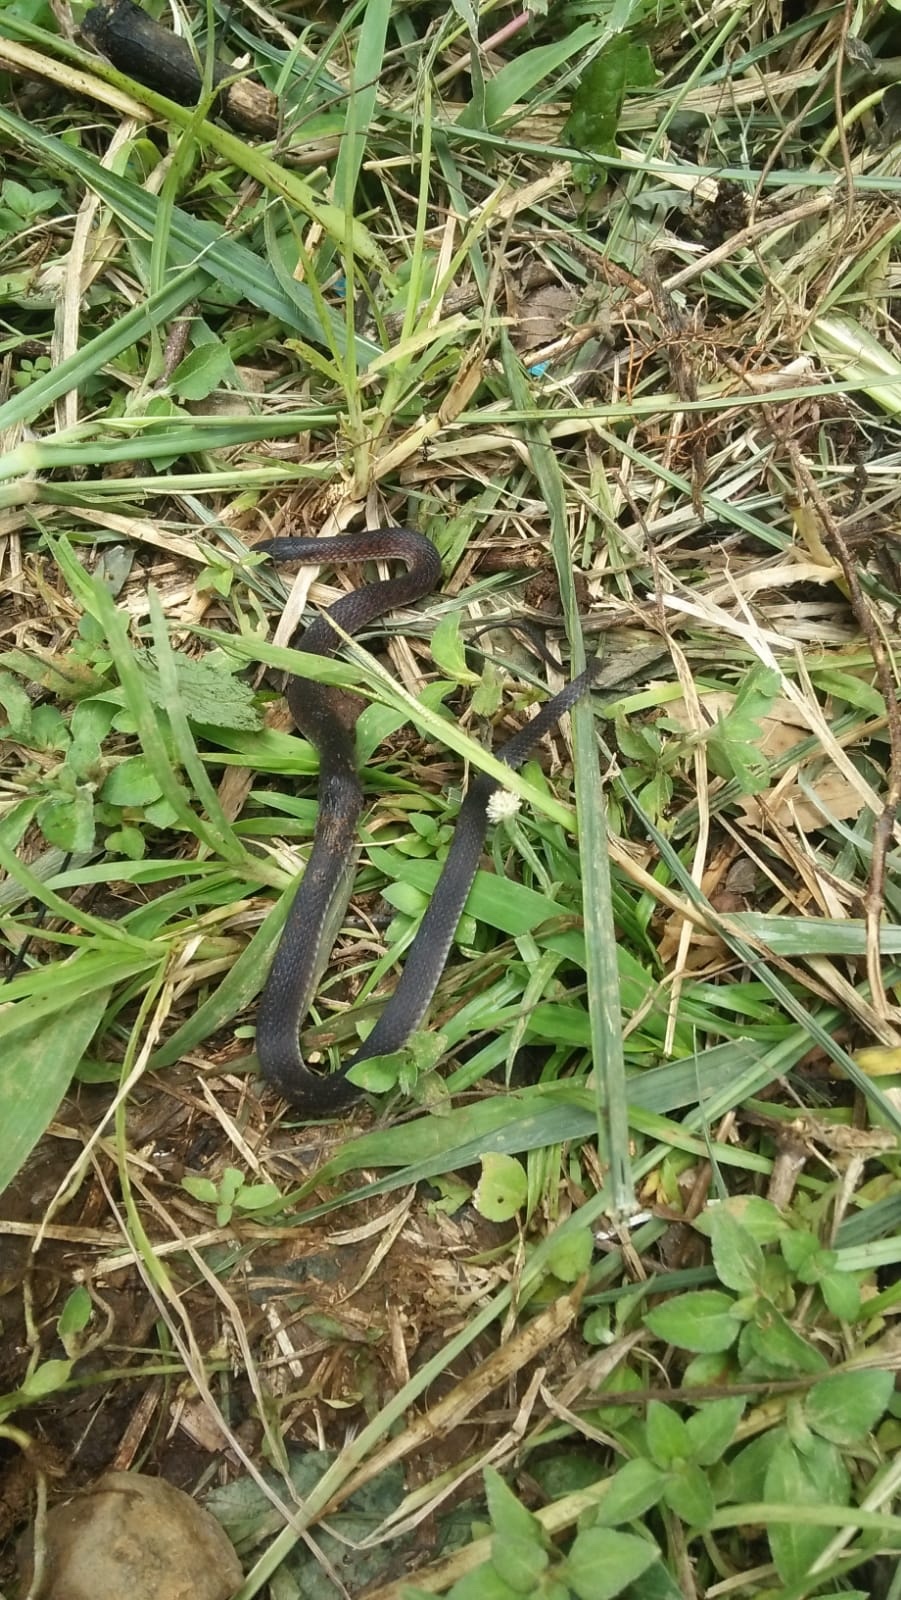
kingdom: Animalia
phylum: Chordata
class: Squamata
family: Colubridae
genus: Elapoidis
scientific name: Elapoidis fusca
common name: Dark-grey ground snake
